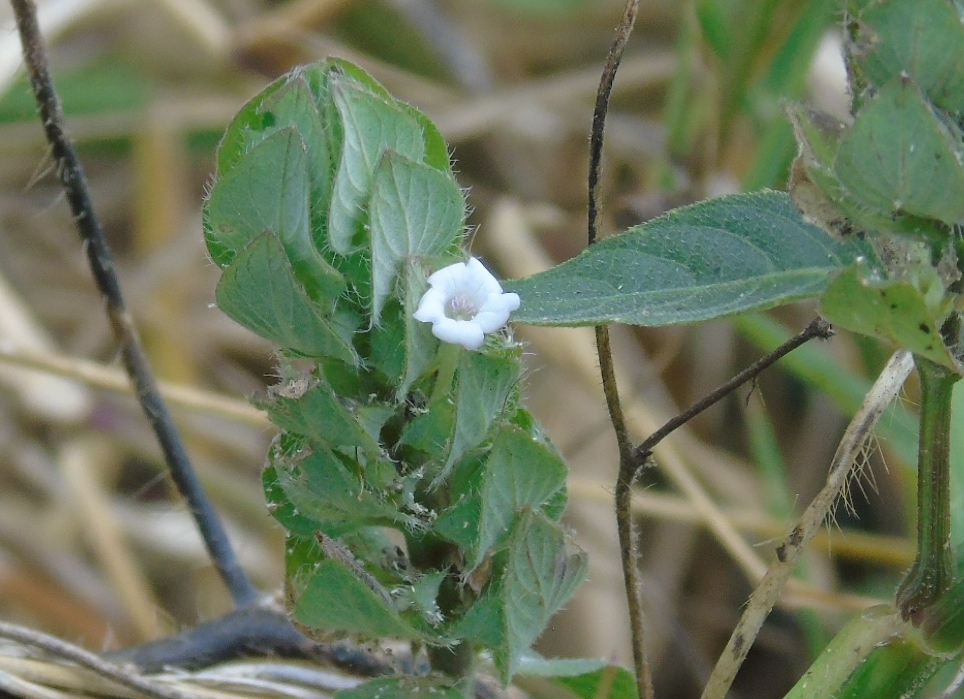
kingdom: Plantae
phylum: Tracheophyta
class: Magnoliopsida
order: Lamiales
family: Acanthaceae
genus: Ruellia
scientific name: Ruellia blechum
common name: Browne's blechum
